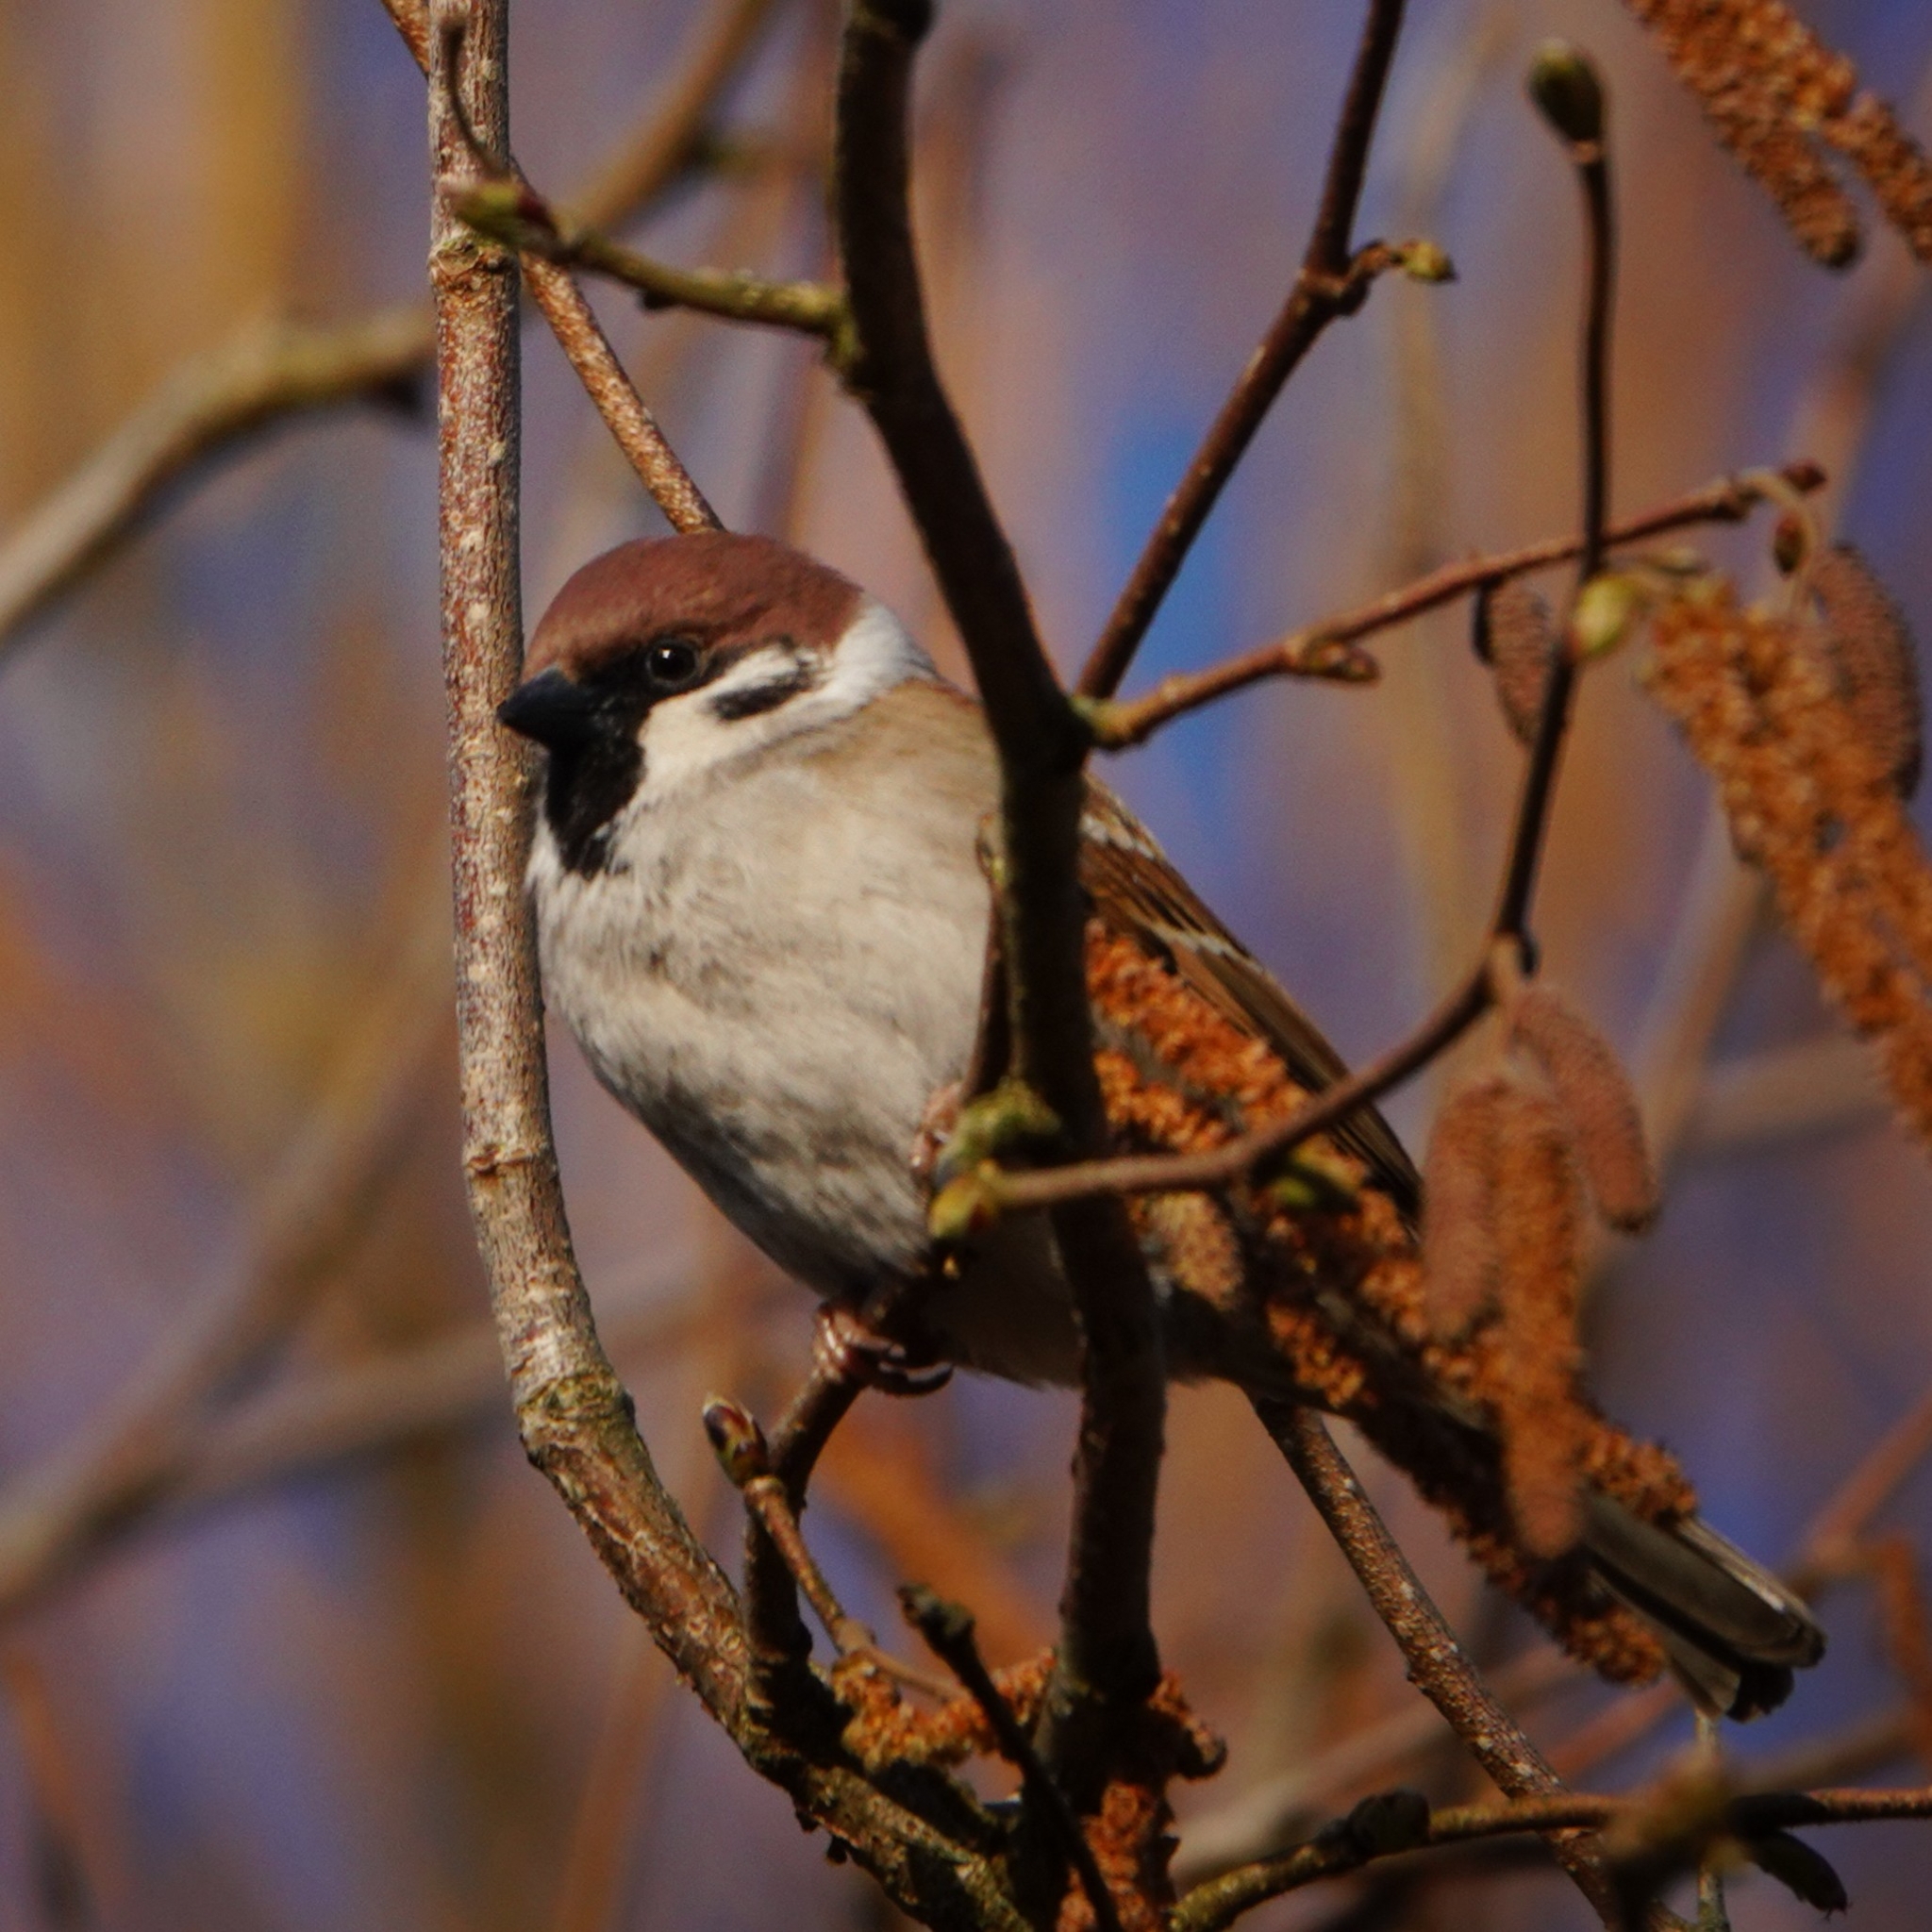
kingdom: Animalia
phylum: Chordata
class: Aves
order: Passeriformes
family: Passeridae
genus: Passer
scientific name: Passer montanus
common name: Eurasian tree sparrow
